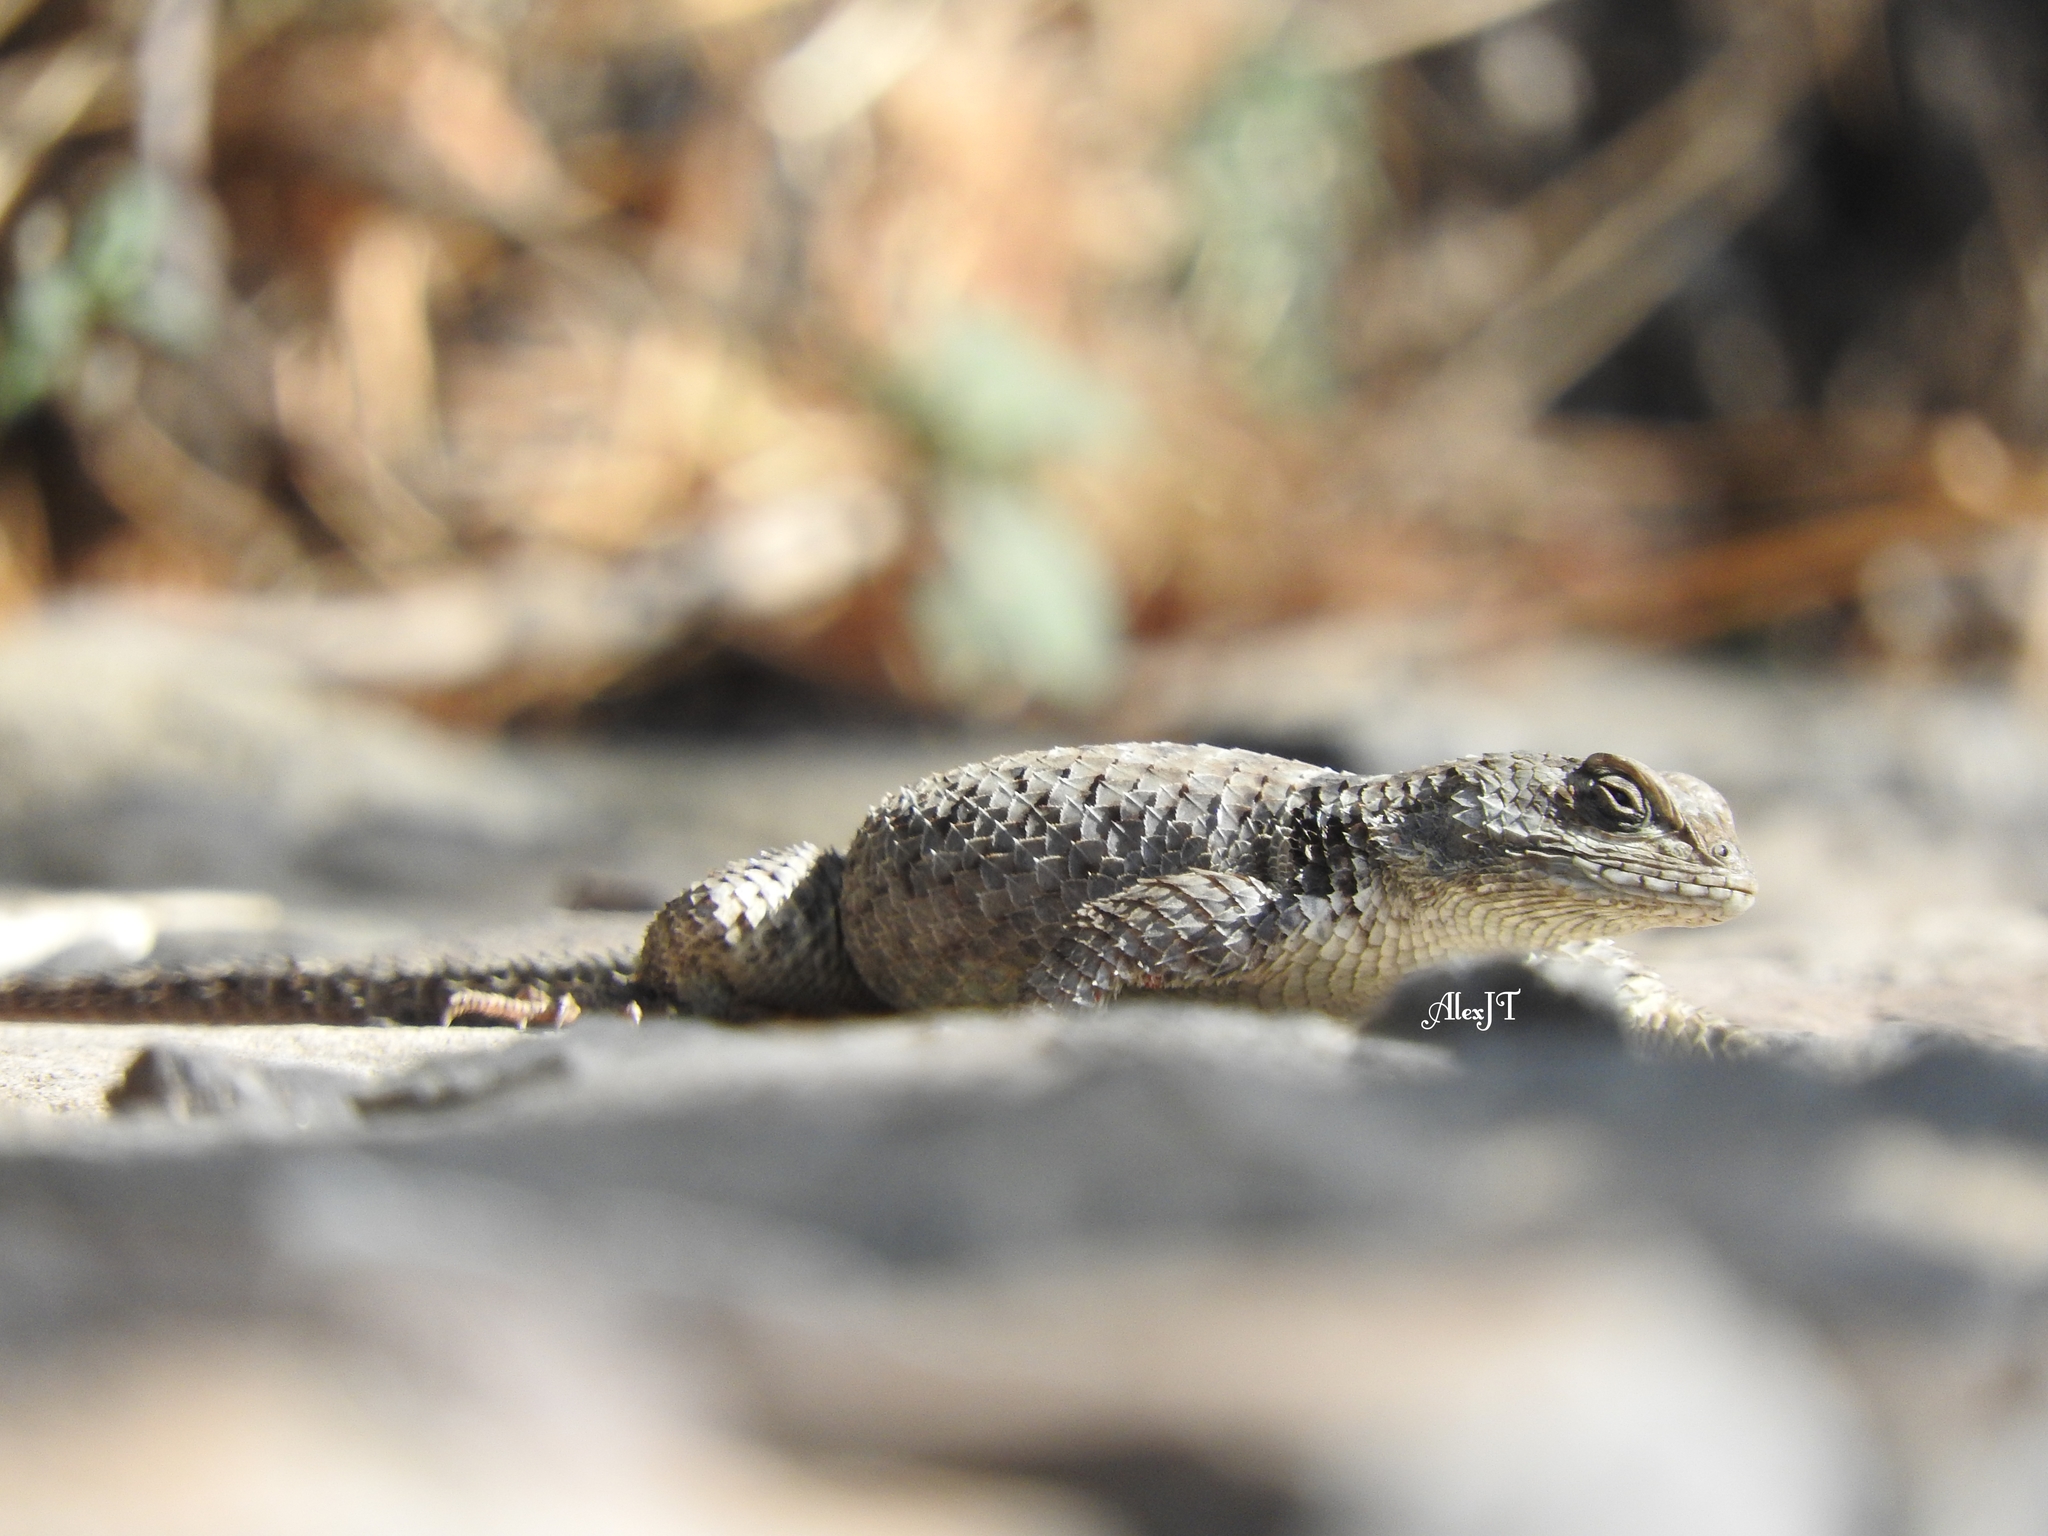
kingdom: Animalia
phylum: Chordata
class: Squamata
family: Phrynosomatidae
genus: Sceloporus
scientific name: Sceloporus torquatus
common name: Central plateau torquate lizard [melanogaster]
